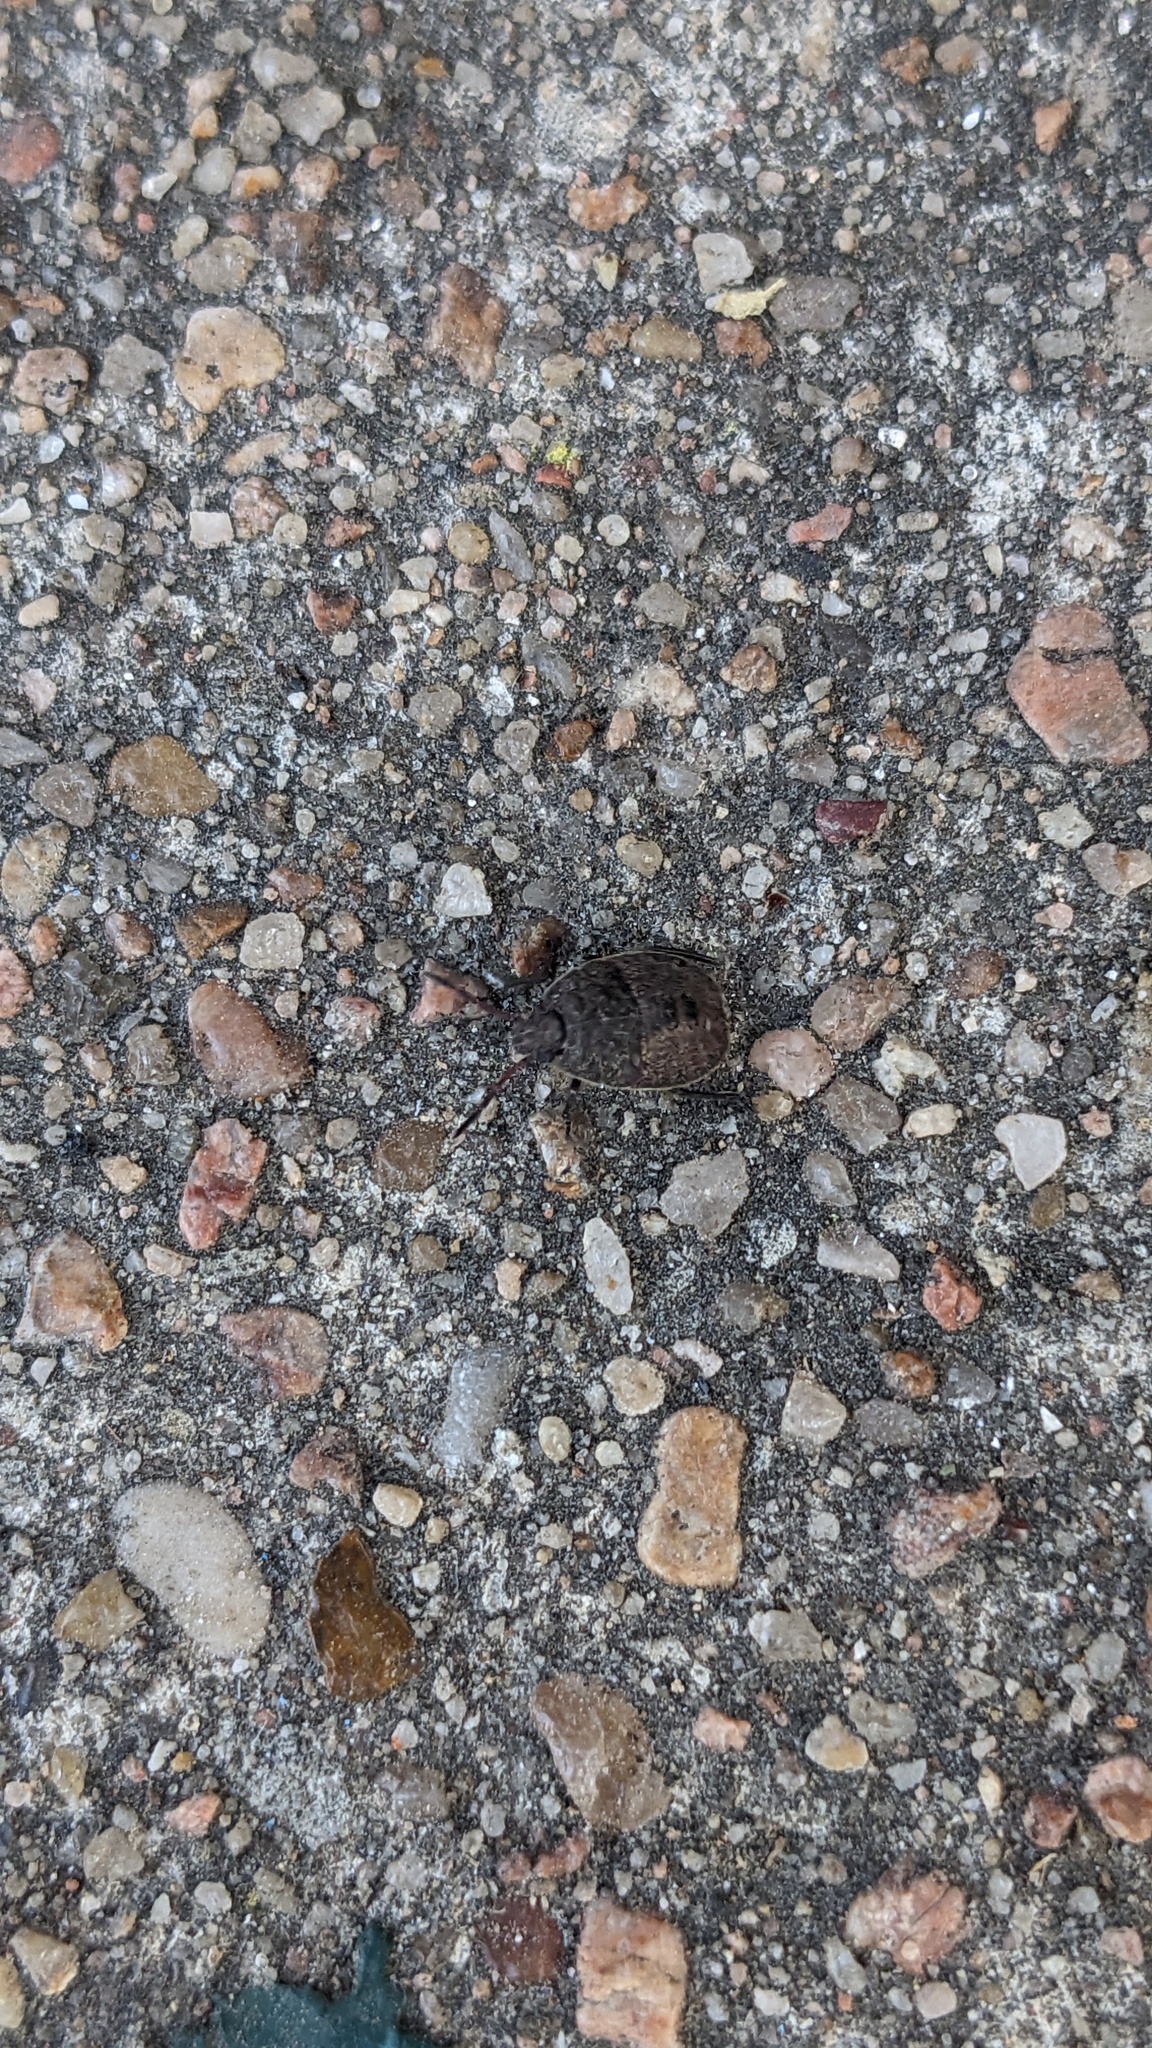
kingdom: Animalia
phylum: Arthropoda
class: Insecta
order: Hemiptera
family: Pentatomidae
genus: Menecles
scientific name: Menecles insertus
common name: Elf shoe stink bug
